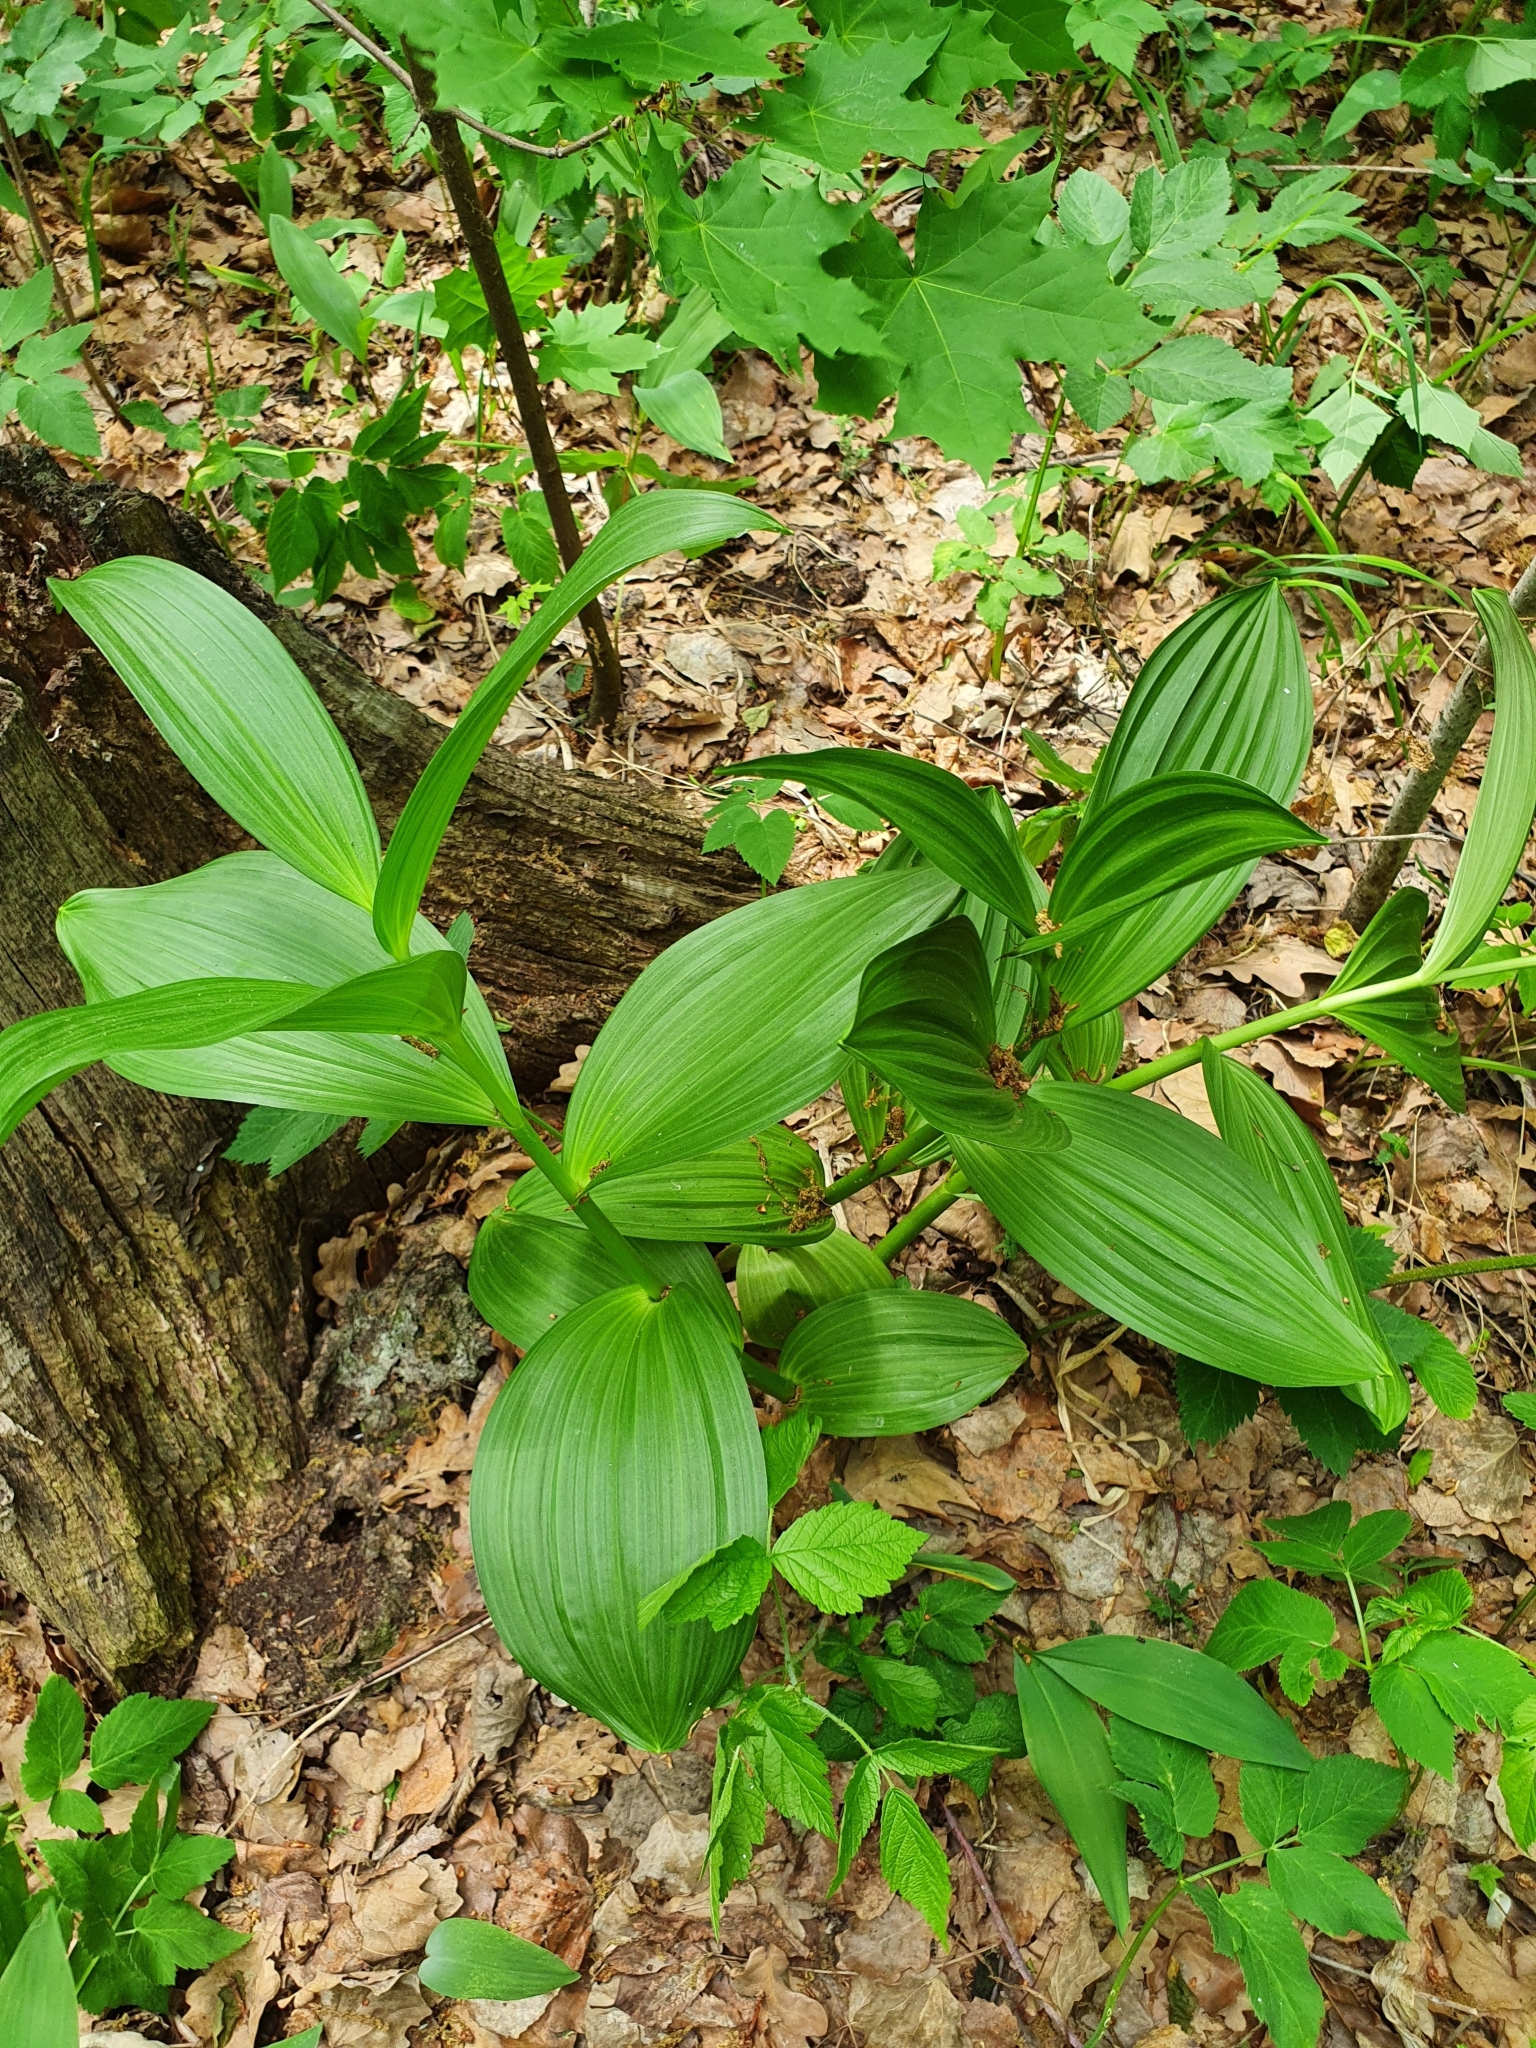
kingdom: Plantae
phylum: Tracheophyta
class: Liliopsida
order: Liliales
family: Melanthiaceae
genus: Veratrum
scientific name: Veratrum lobelianum
